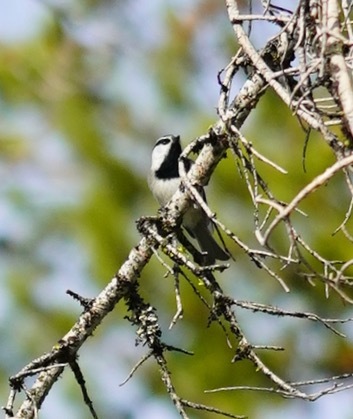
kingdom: Animalia
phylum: Chordata
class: Aves
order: Passeriformes
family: Paridae
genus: Poecile
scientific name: Poecile gambeli
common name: Mountain chickadee
